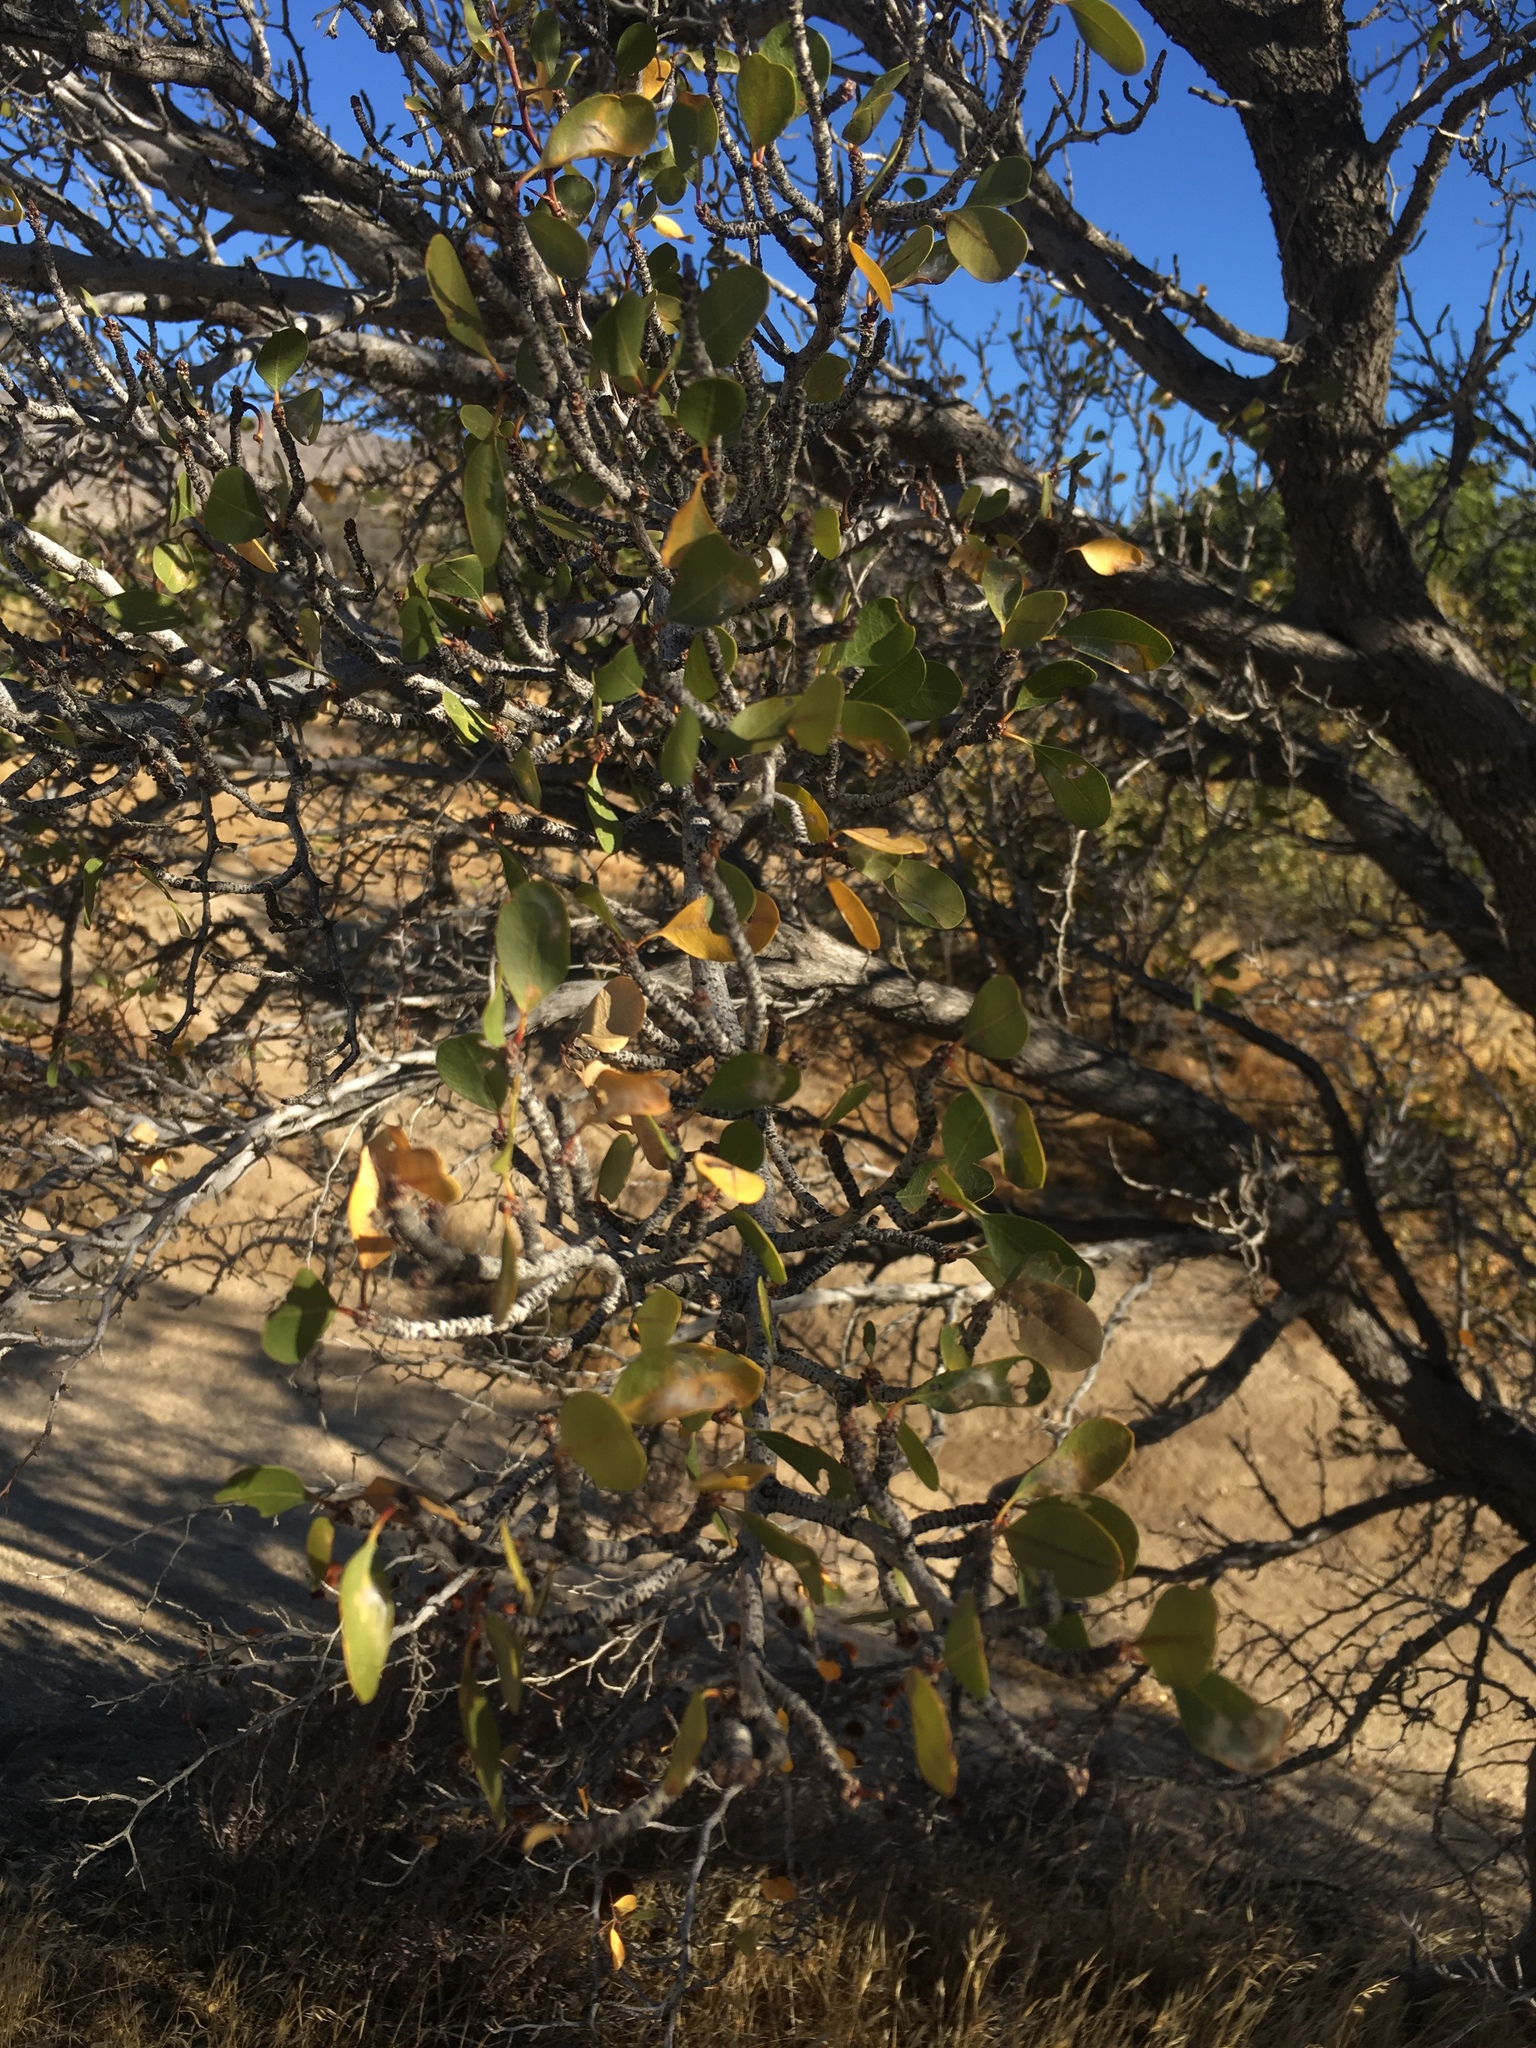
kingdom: Plantae
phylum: Tracheophyta
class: Magnoliopsida
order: Rosales
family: Rhamnaceae
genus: Pseudoziziphus
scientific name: Pseudoziziphus parryi
